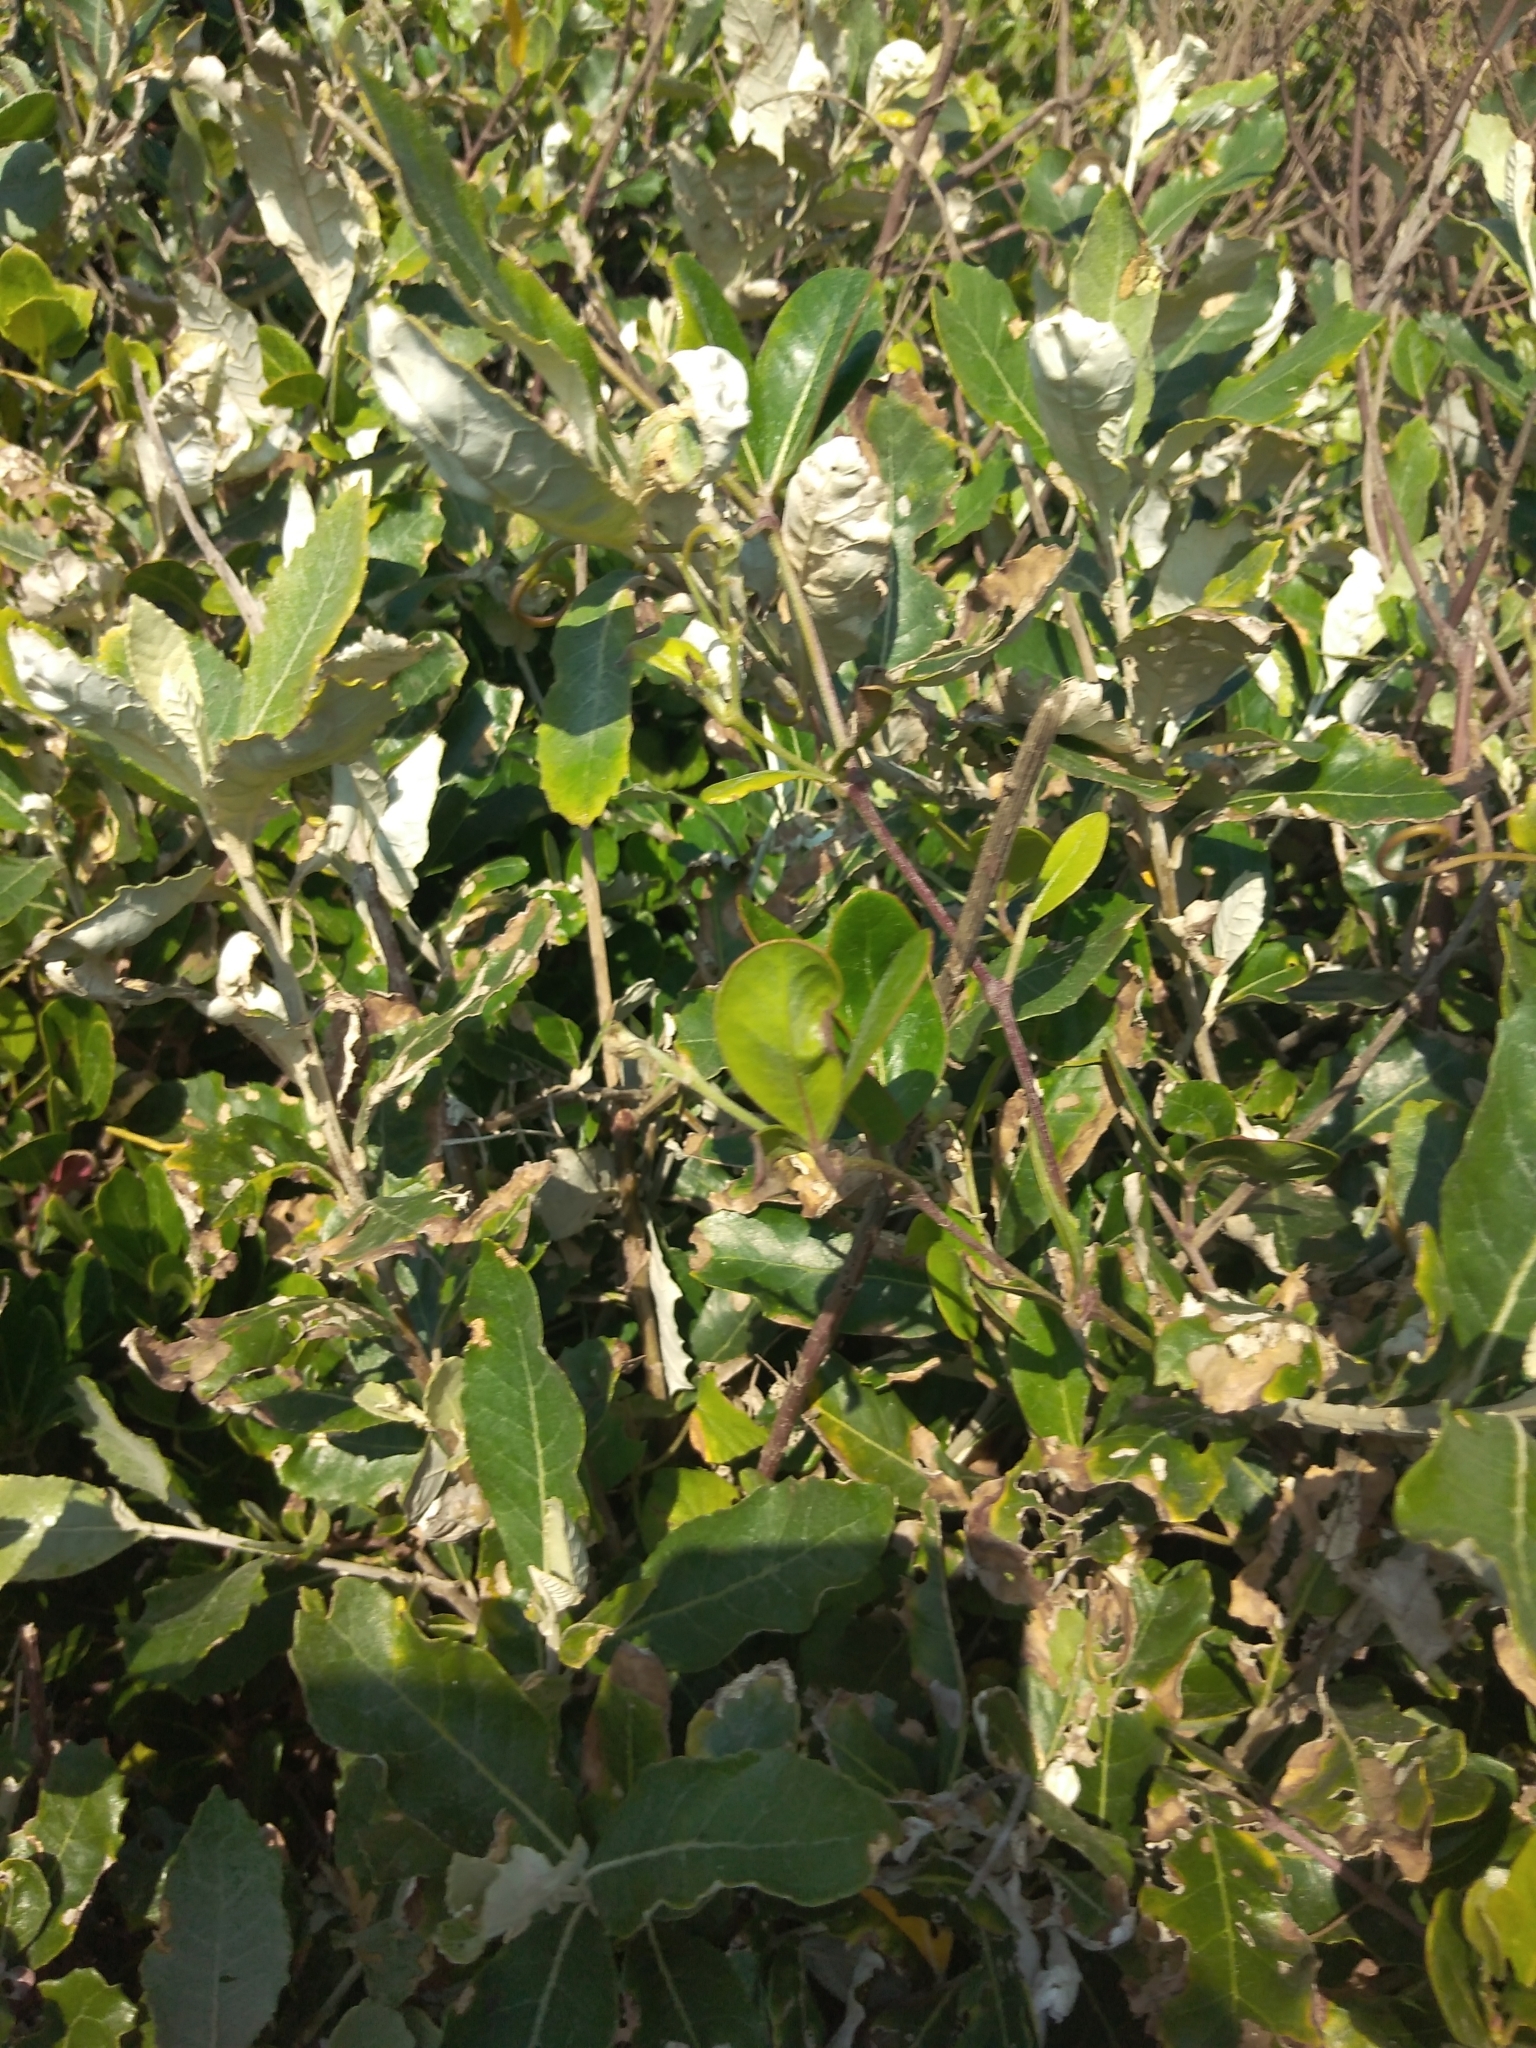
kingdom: Plantae
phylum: Tracheophyta
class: Magnoliopsida
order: Asterales
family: Asteraceae
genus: Brachylaena
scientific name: Brachylaena discolor
